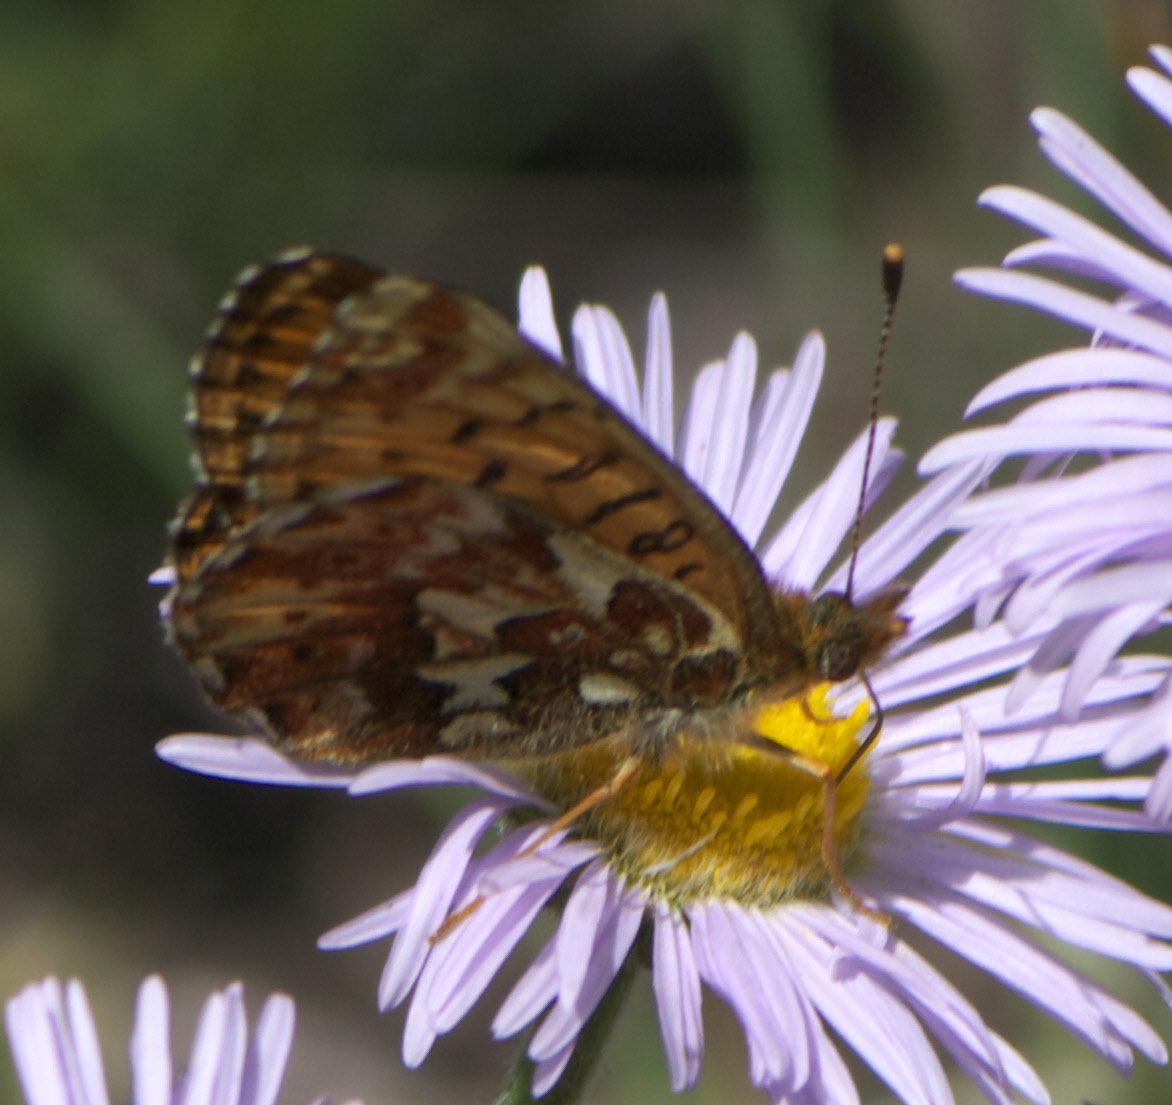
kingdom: Animalia
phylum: Arthropoda
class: Insecta
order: Lepidoptera
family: Nymphalidae
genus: Boloria
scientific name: Boloria chariclea
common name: Arctic fritillary
